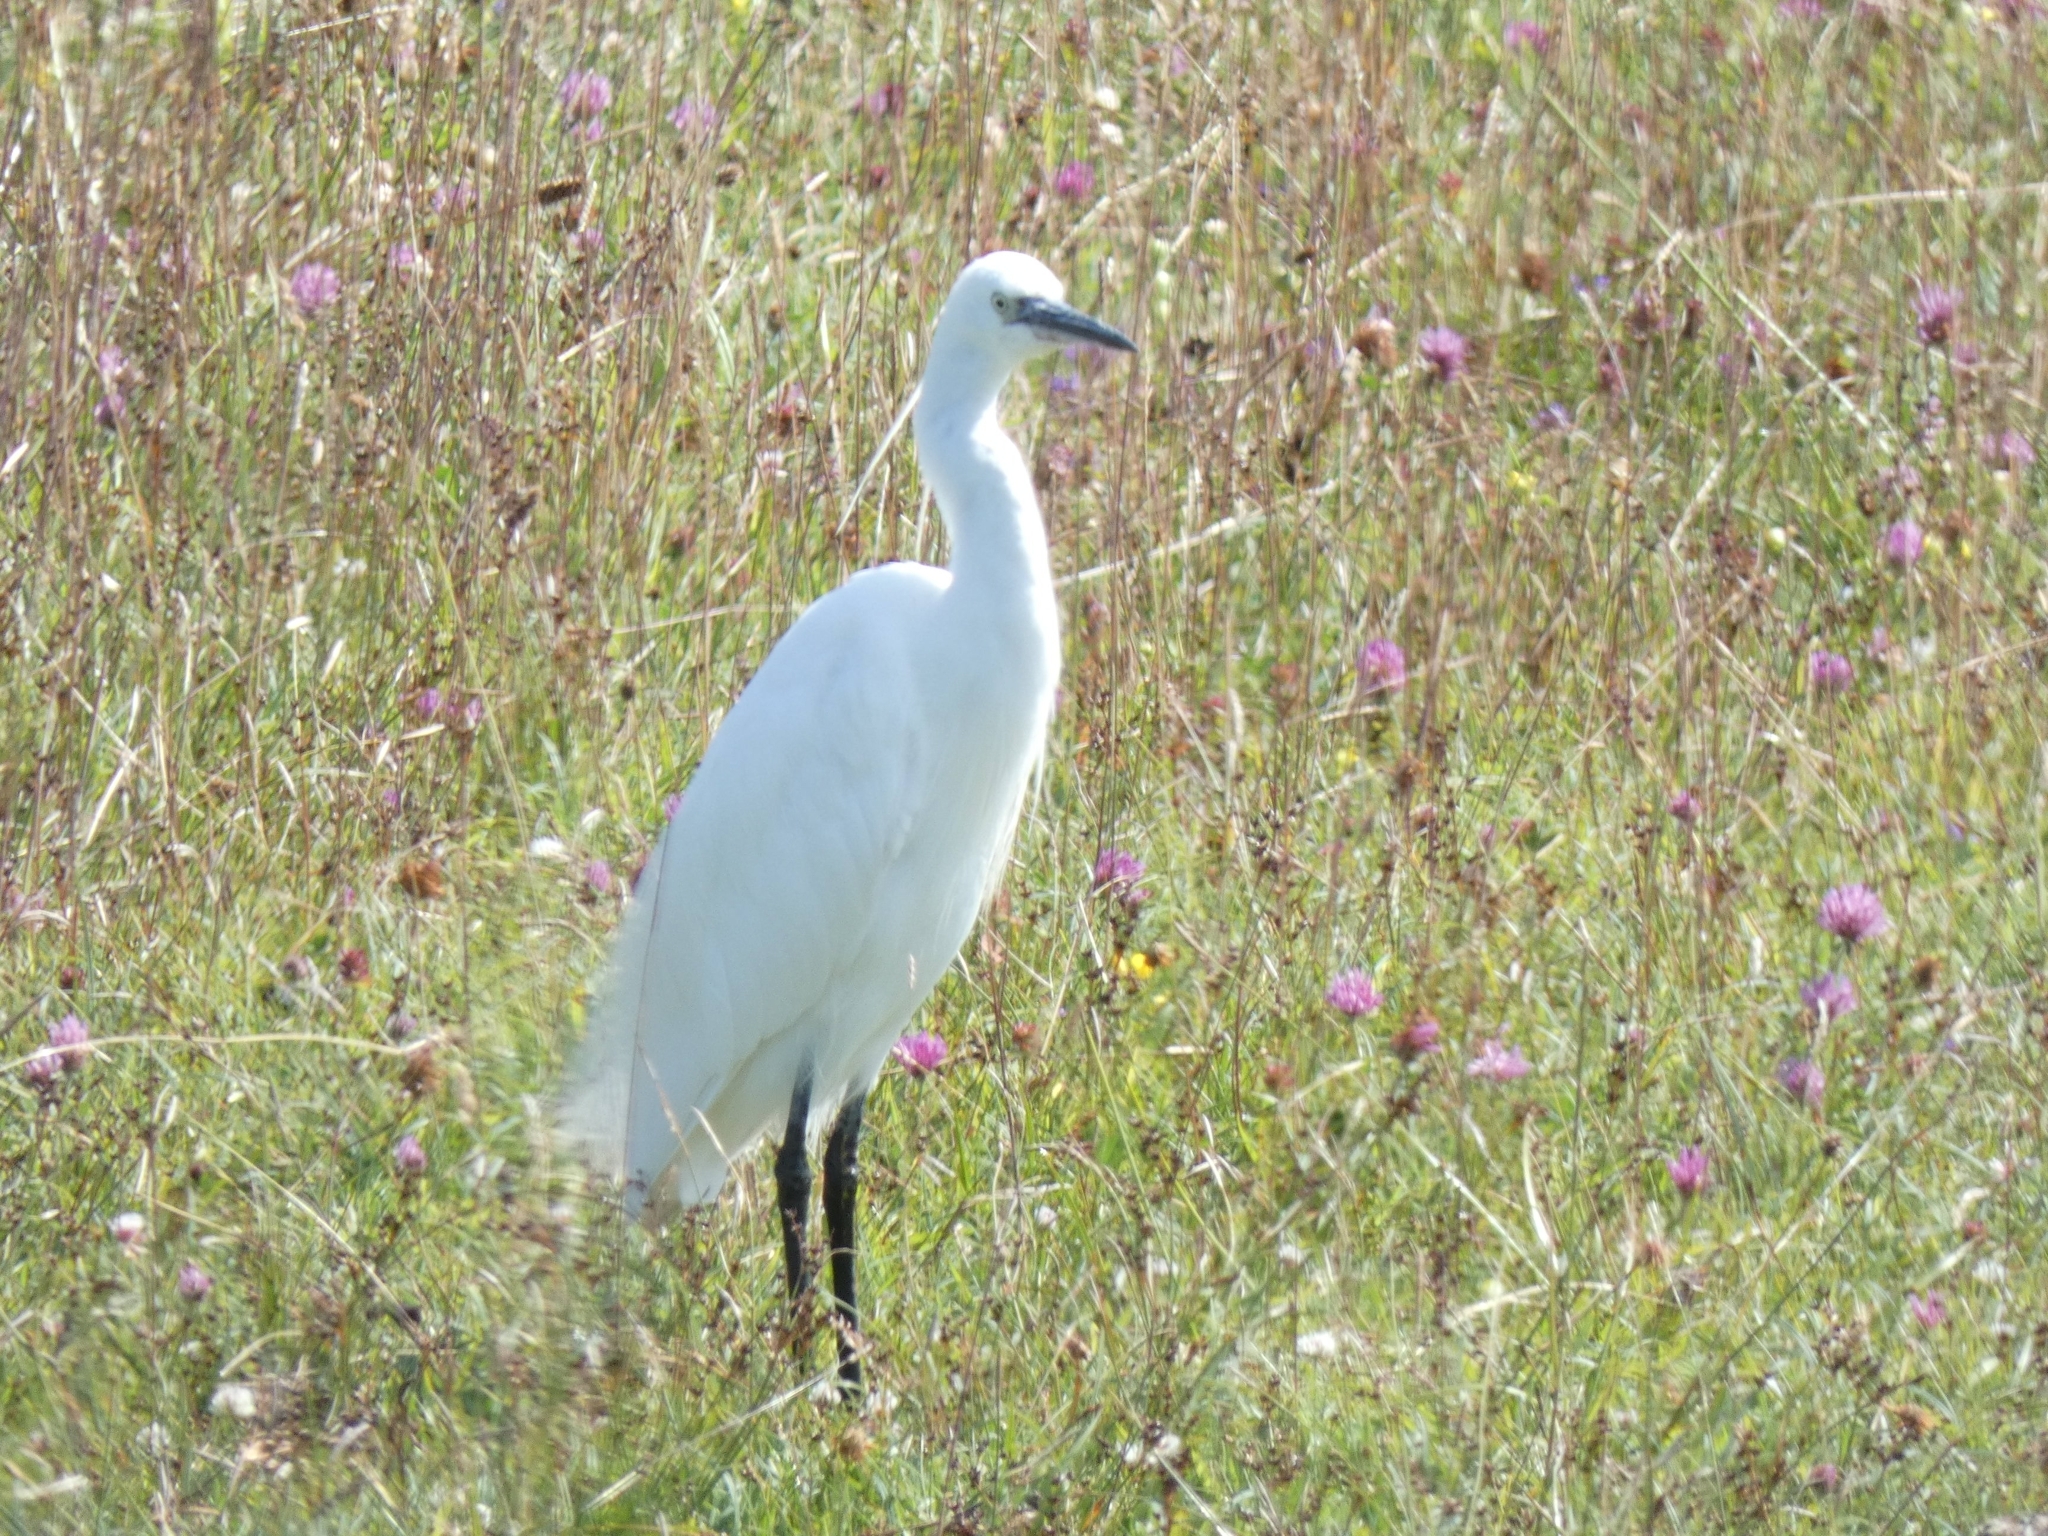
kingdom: Animalia
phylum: Chordata
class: Aves
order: Pelecaniformes
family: Ardeidae
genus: Egretta
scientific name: Egretta garzetta
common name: Little egret
